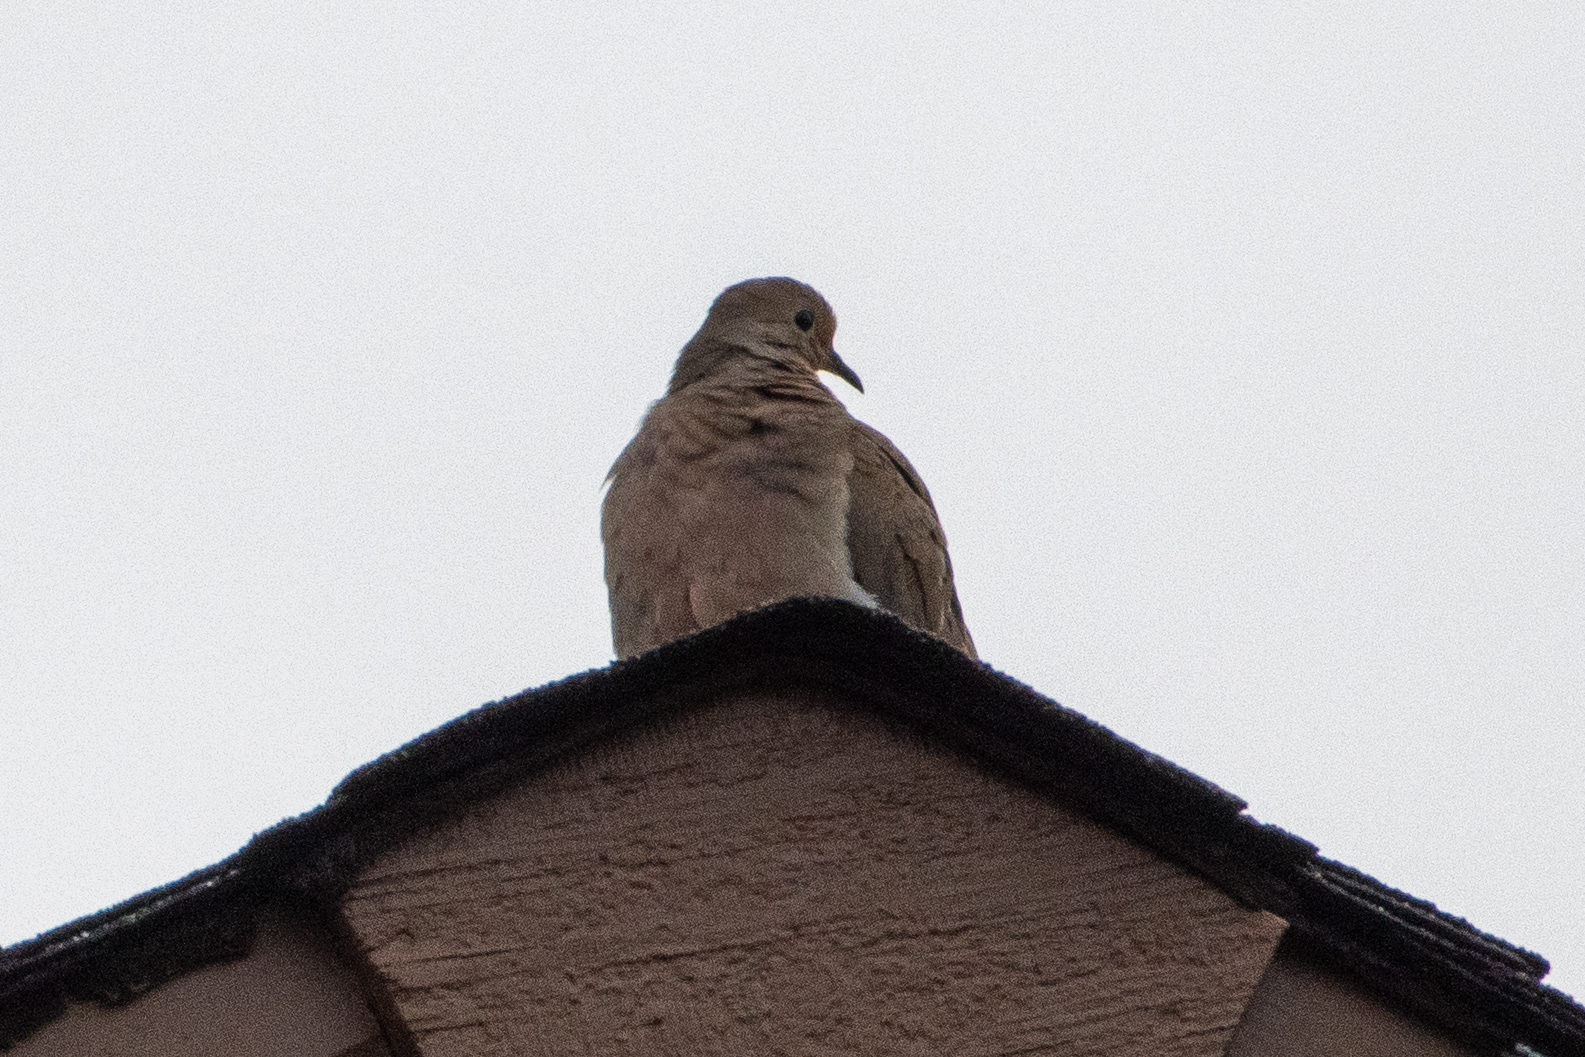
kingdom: Animalia
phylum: Chordata
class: Aves
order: Columbiformes
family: Columbidae
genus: Zenaida
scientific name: Zenaida macroura
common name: Mourning dove
